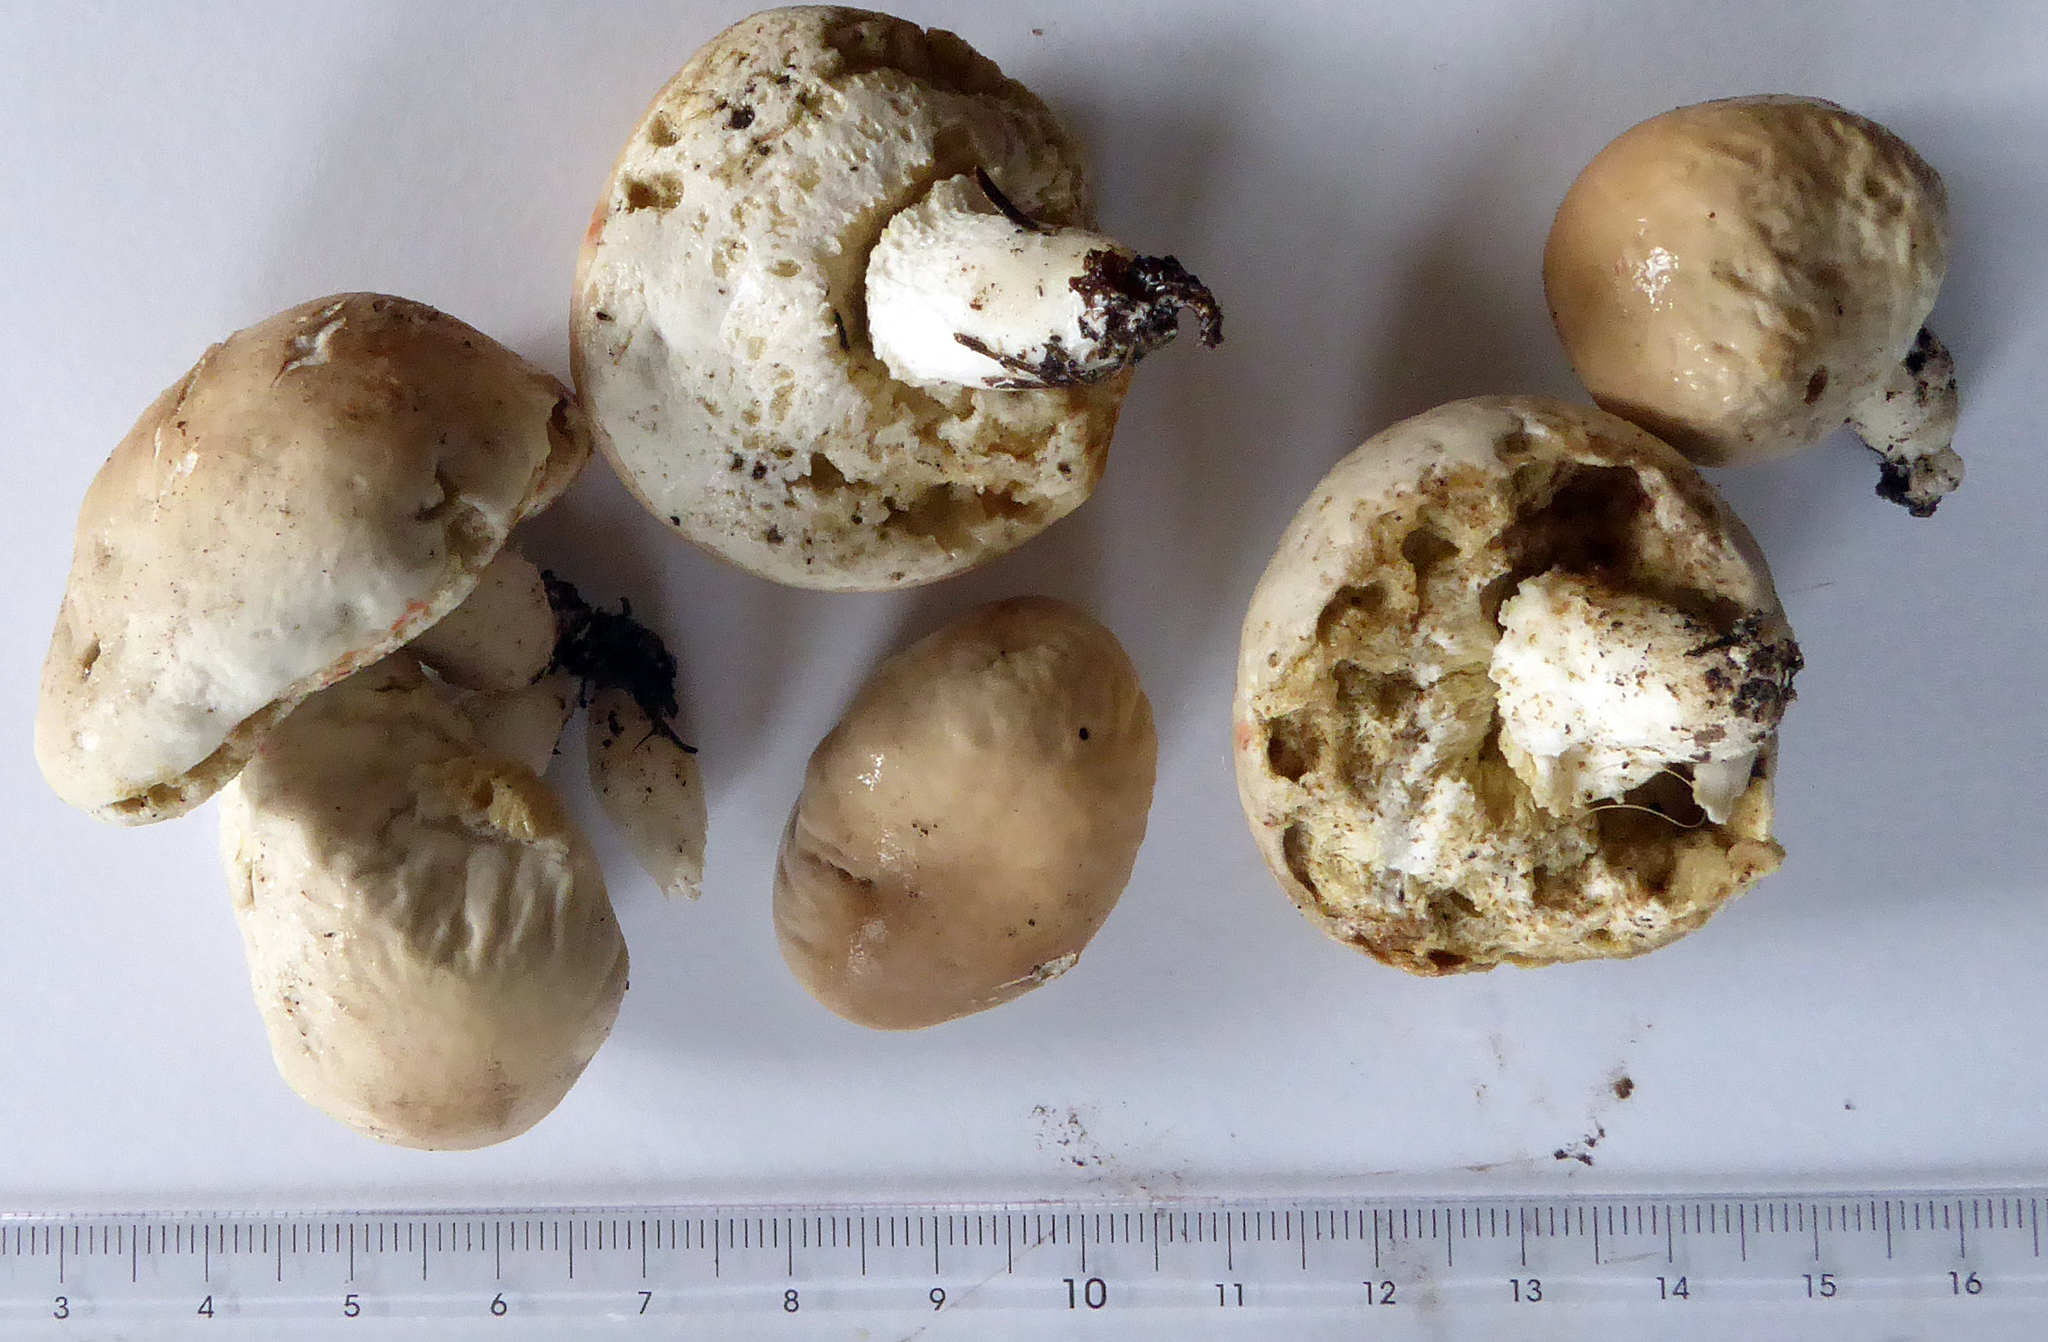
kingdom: Fungi
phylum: Basidiomycota
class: Agaricomycetes
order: Boletales
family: Boletaceae
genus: Boletus
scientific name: Boletus semigastroideus
